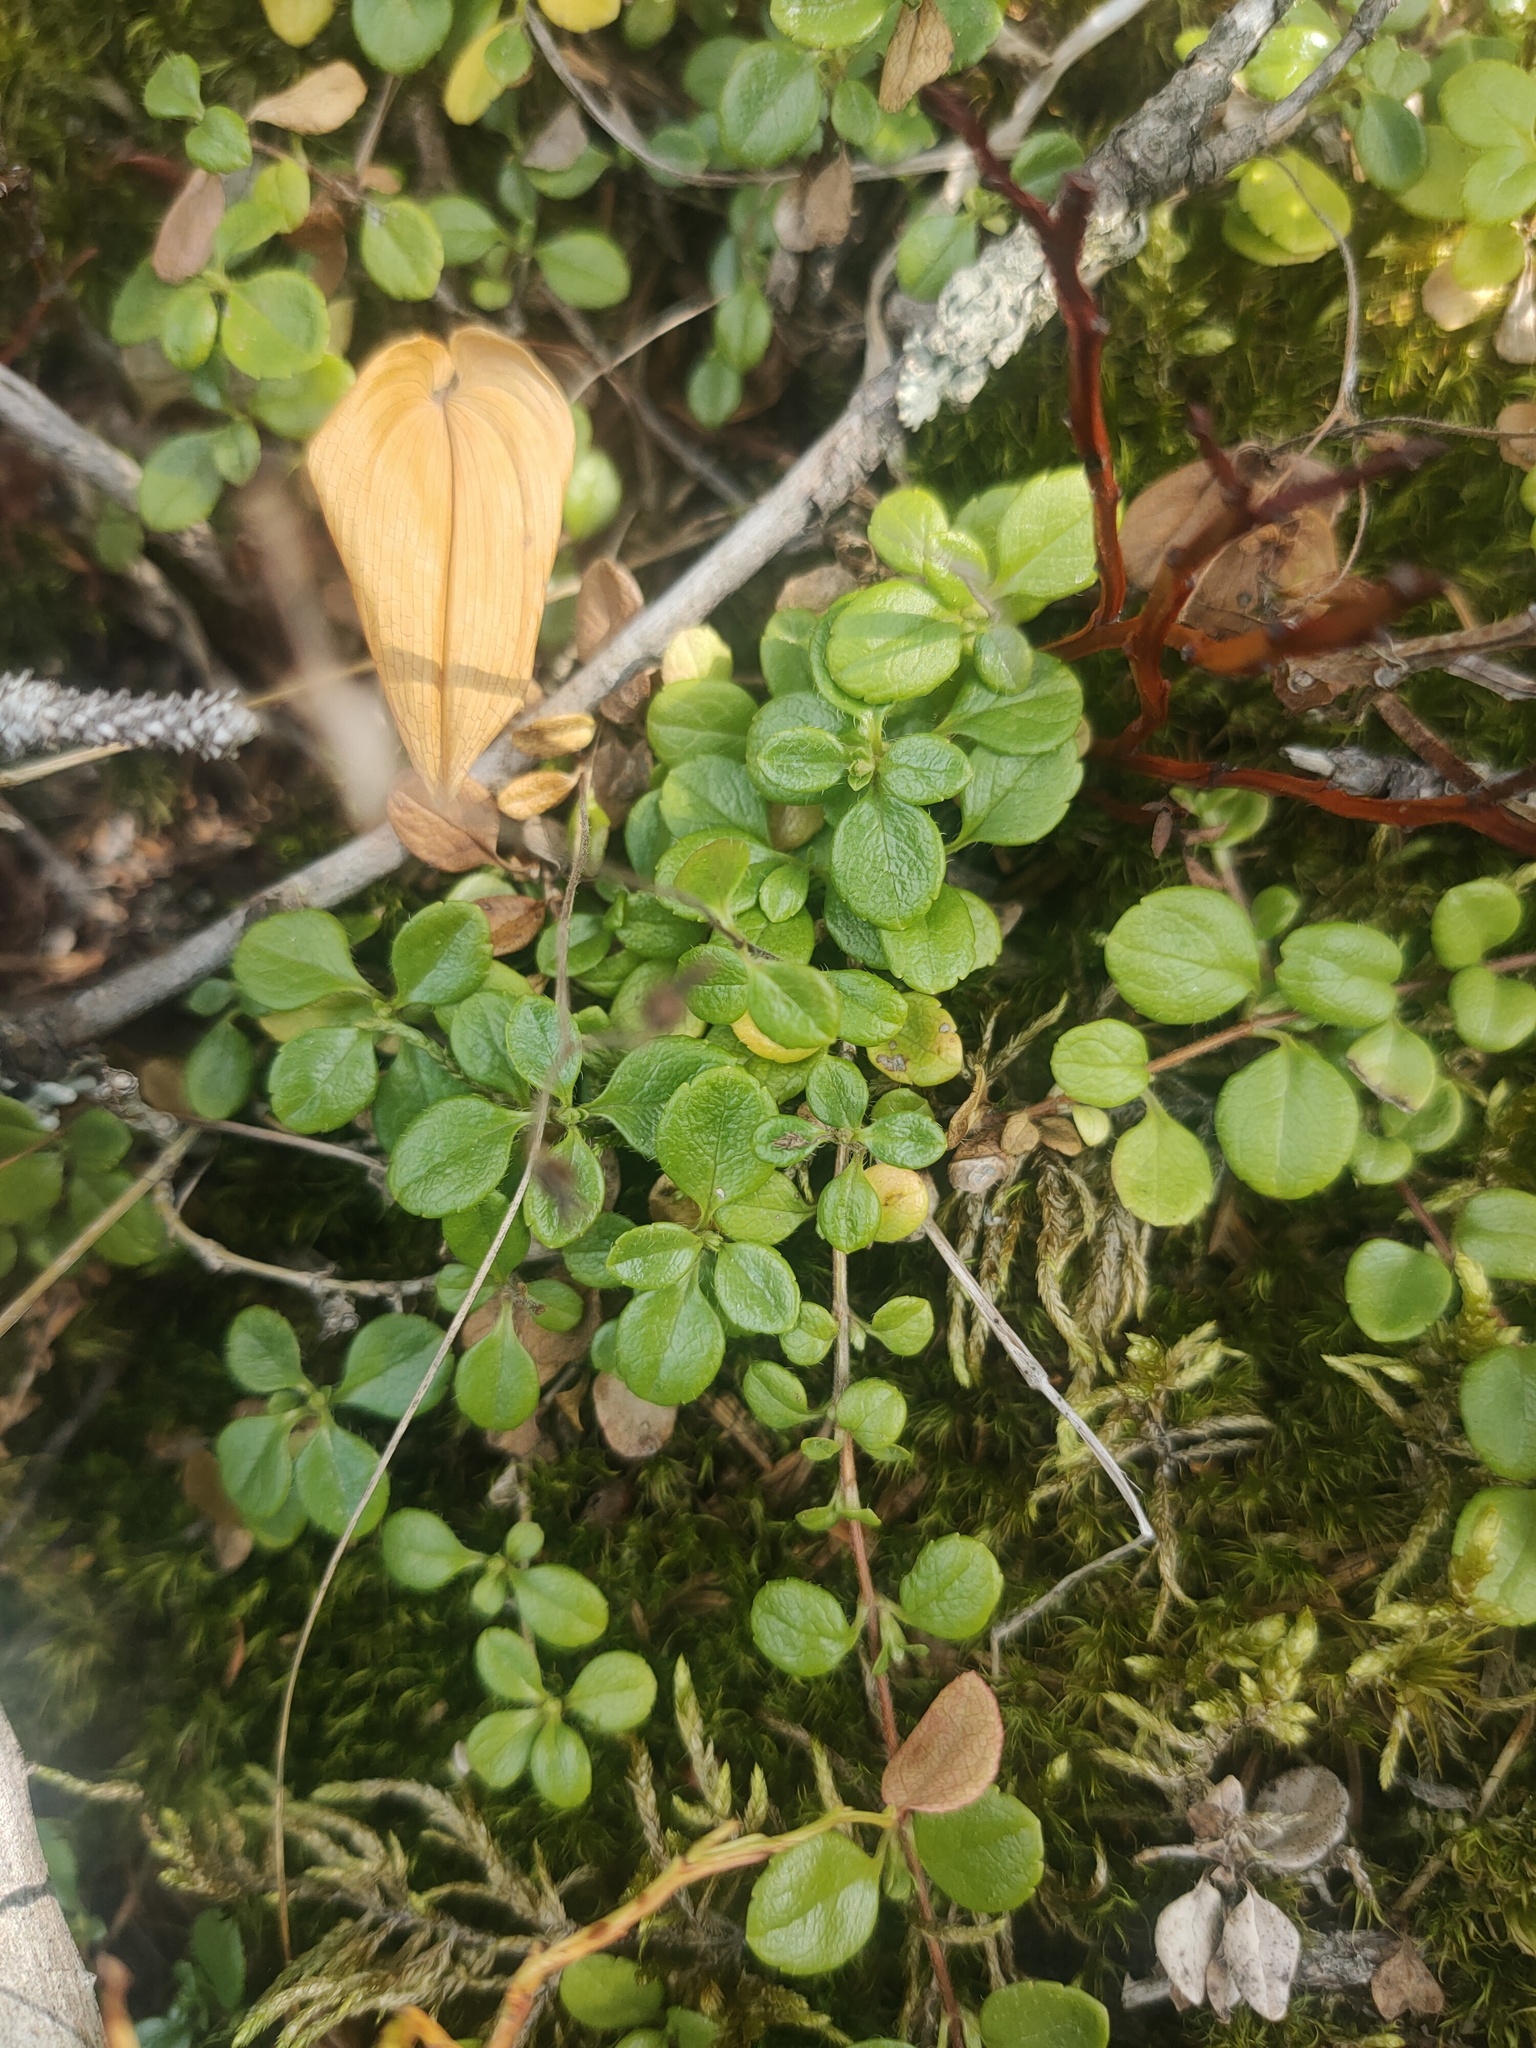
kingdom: Plantae
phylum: Tracheophyta
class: Magnoliopsida
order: Dipsacales
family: Caprifoliaceae
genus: Linnaea
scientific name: Linnaea borealis
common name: Twinflower
